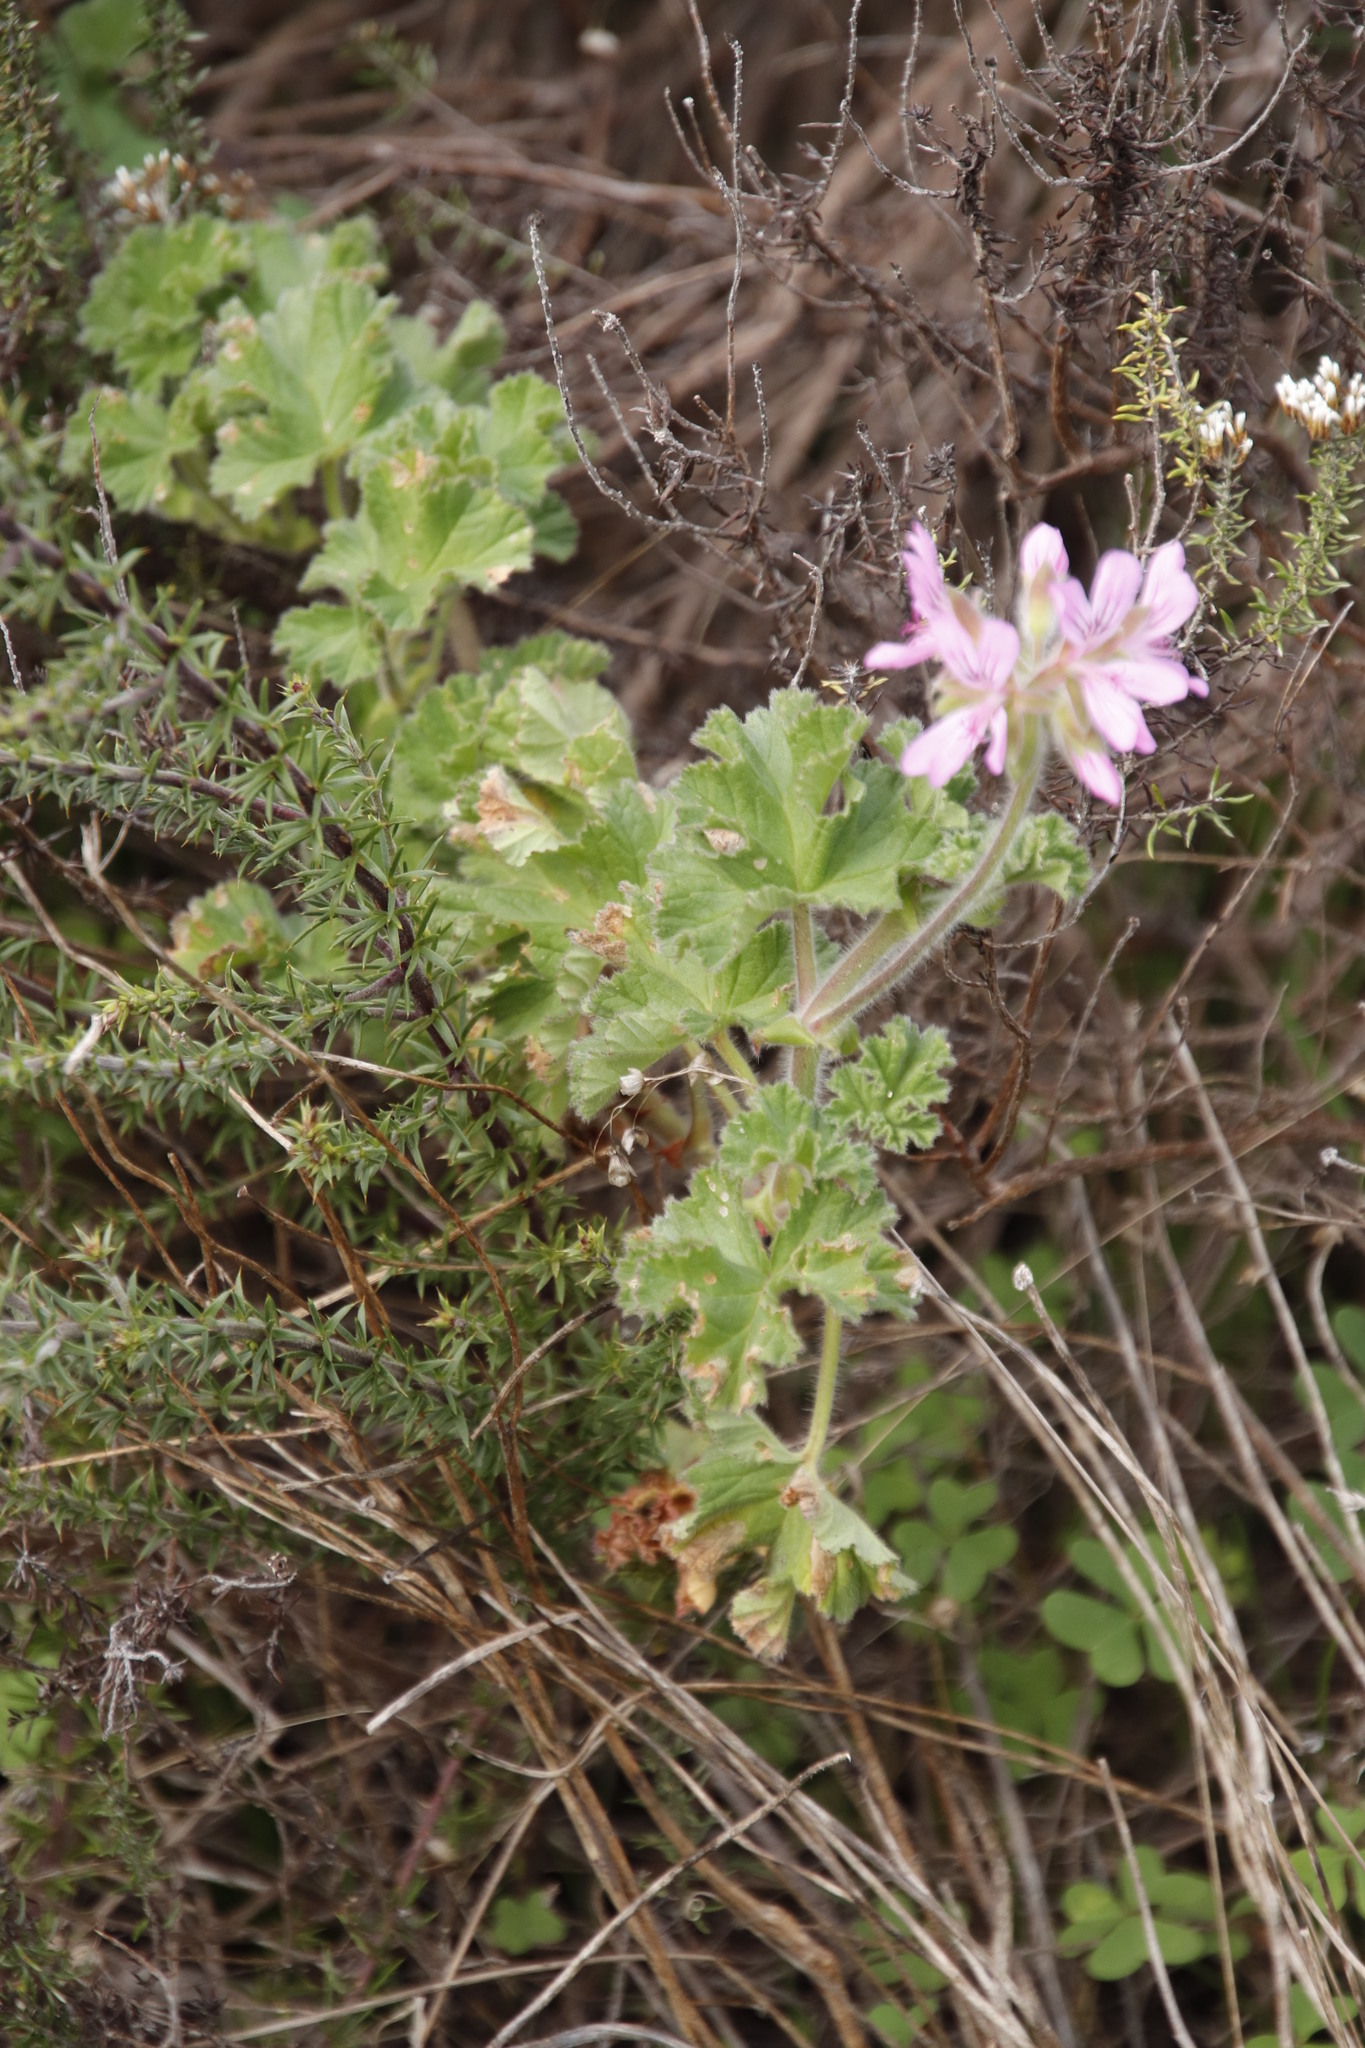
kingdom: Plantae
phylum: Tracheophyta
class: Magnoliopsida
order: Geraniales
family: Geraniaceae
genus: Pelargonium
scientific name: Pelargonium capitatum
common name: Rose scented geranium
